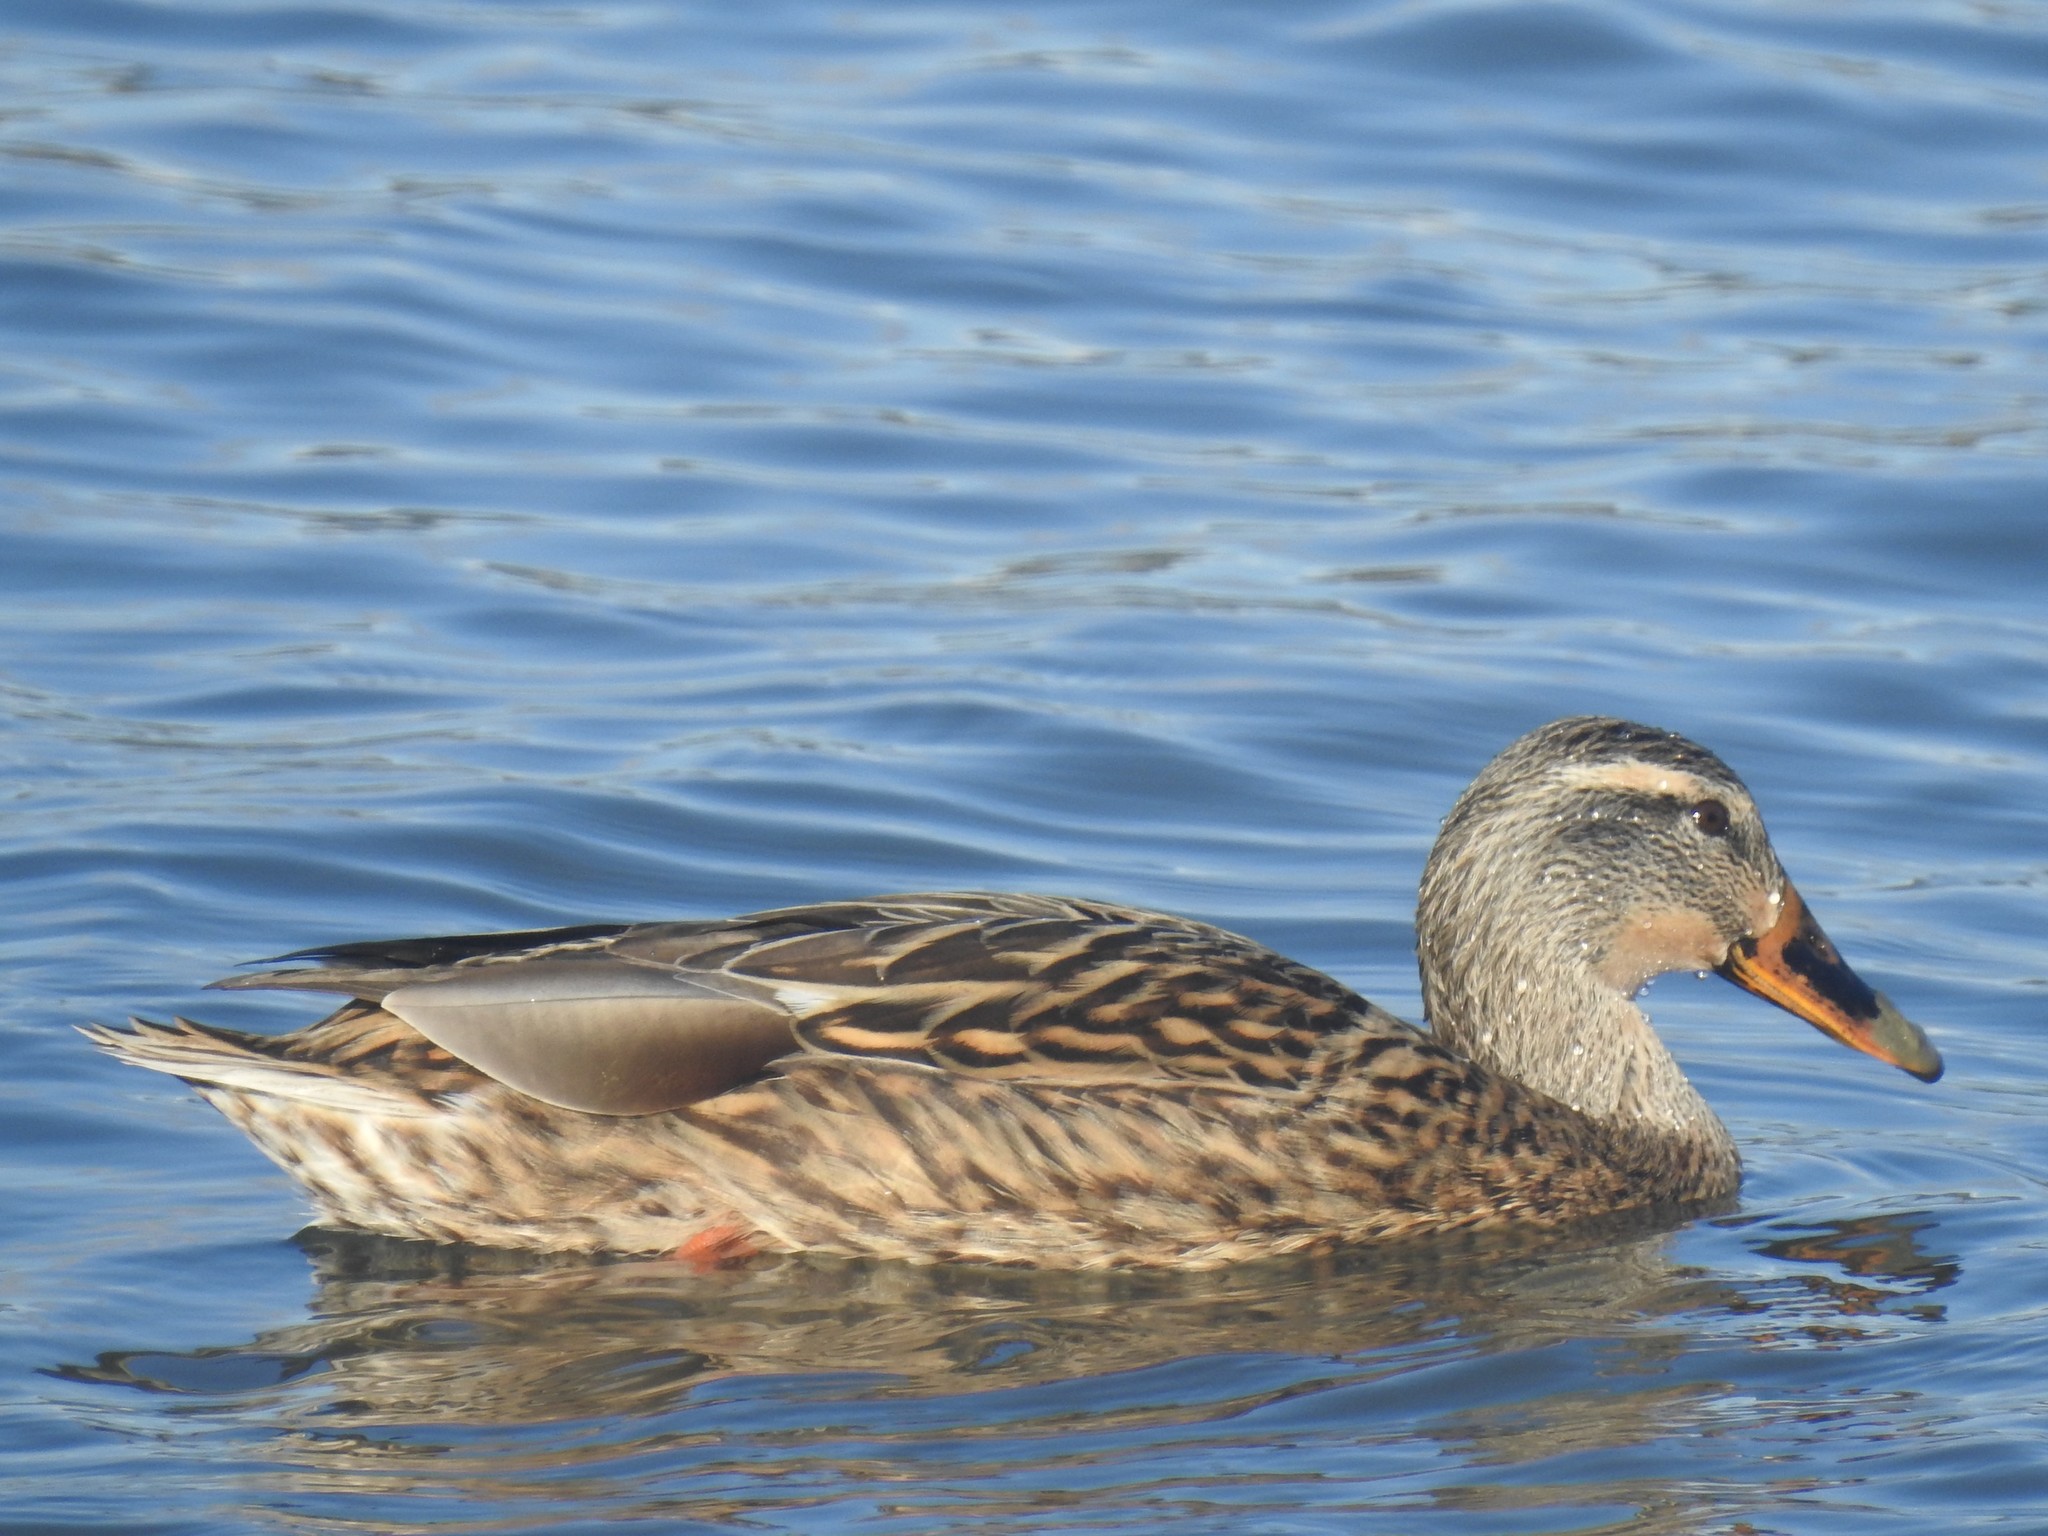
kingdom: Animalia
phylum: Chordata
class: Aves
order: Anseriformes
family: Anatidae
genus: Anas
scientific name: Anas platyrhynchos
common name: Mallard
